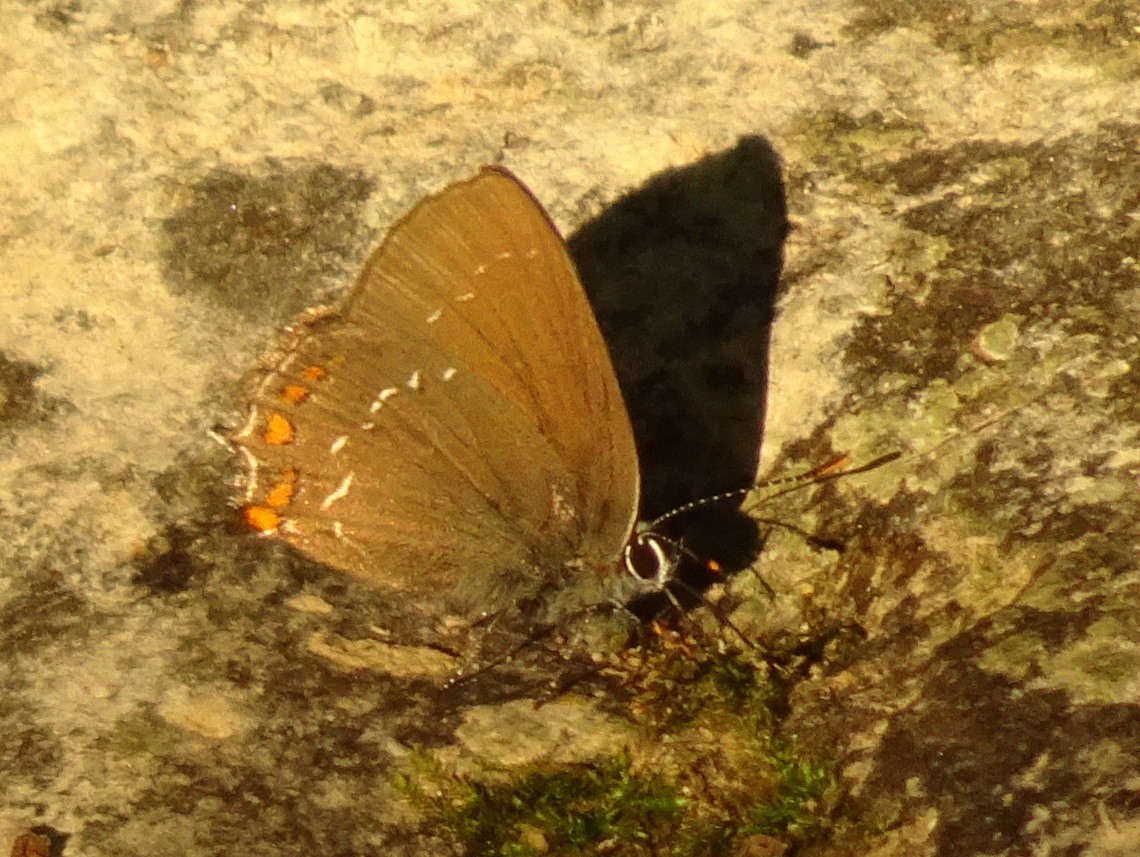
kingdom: Animalia
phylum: Arthropoda
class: Insecta
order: Lepidoptera
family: Lycaenidae
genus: Nordmannia
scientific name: Nordmannia ilicis
